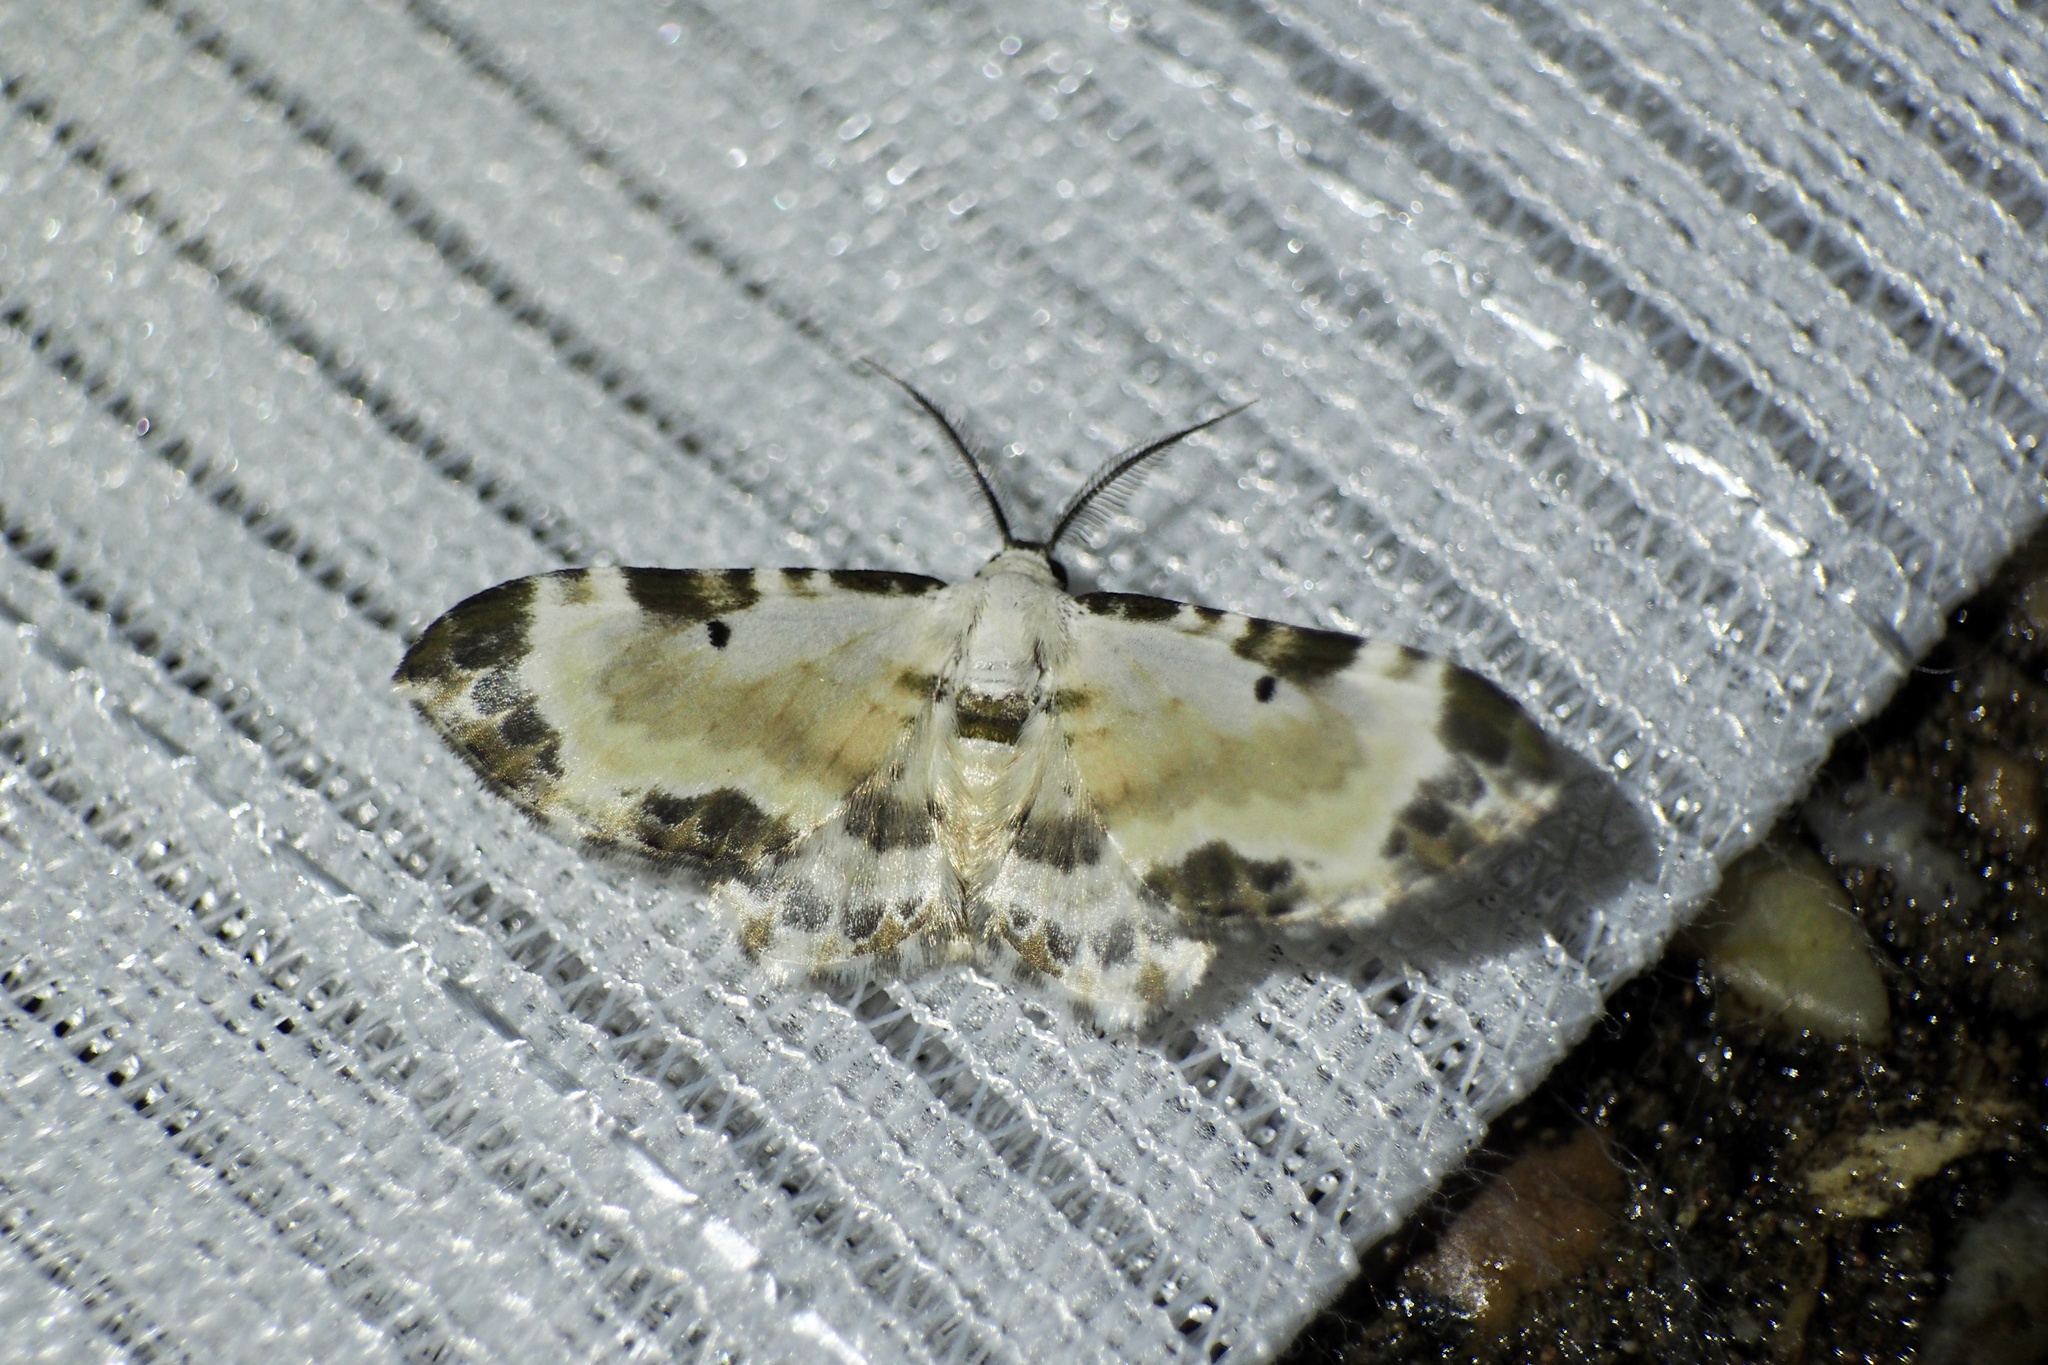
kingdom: Animalia
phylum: Arthropoda
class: Insecta
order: Lepidoptera
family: Geometridae
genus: Tyloptera
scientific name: Tyloptera bella
